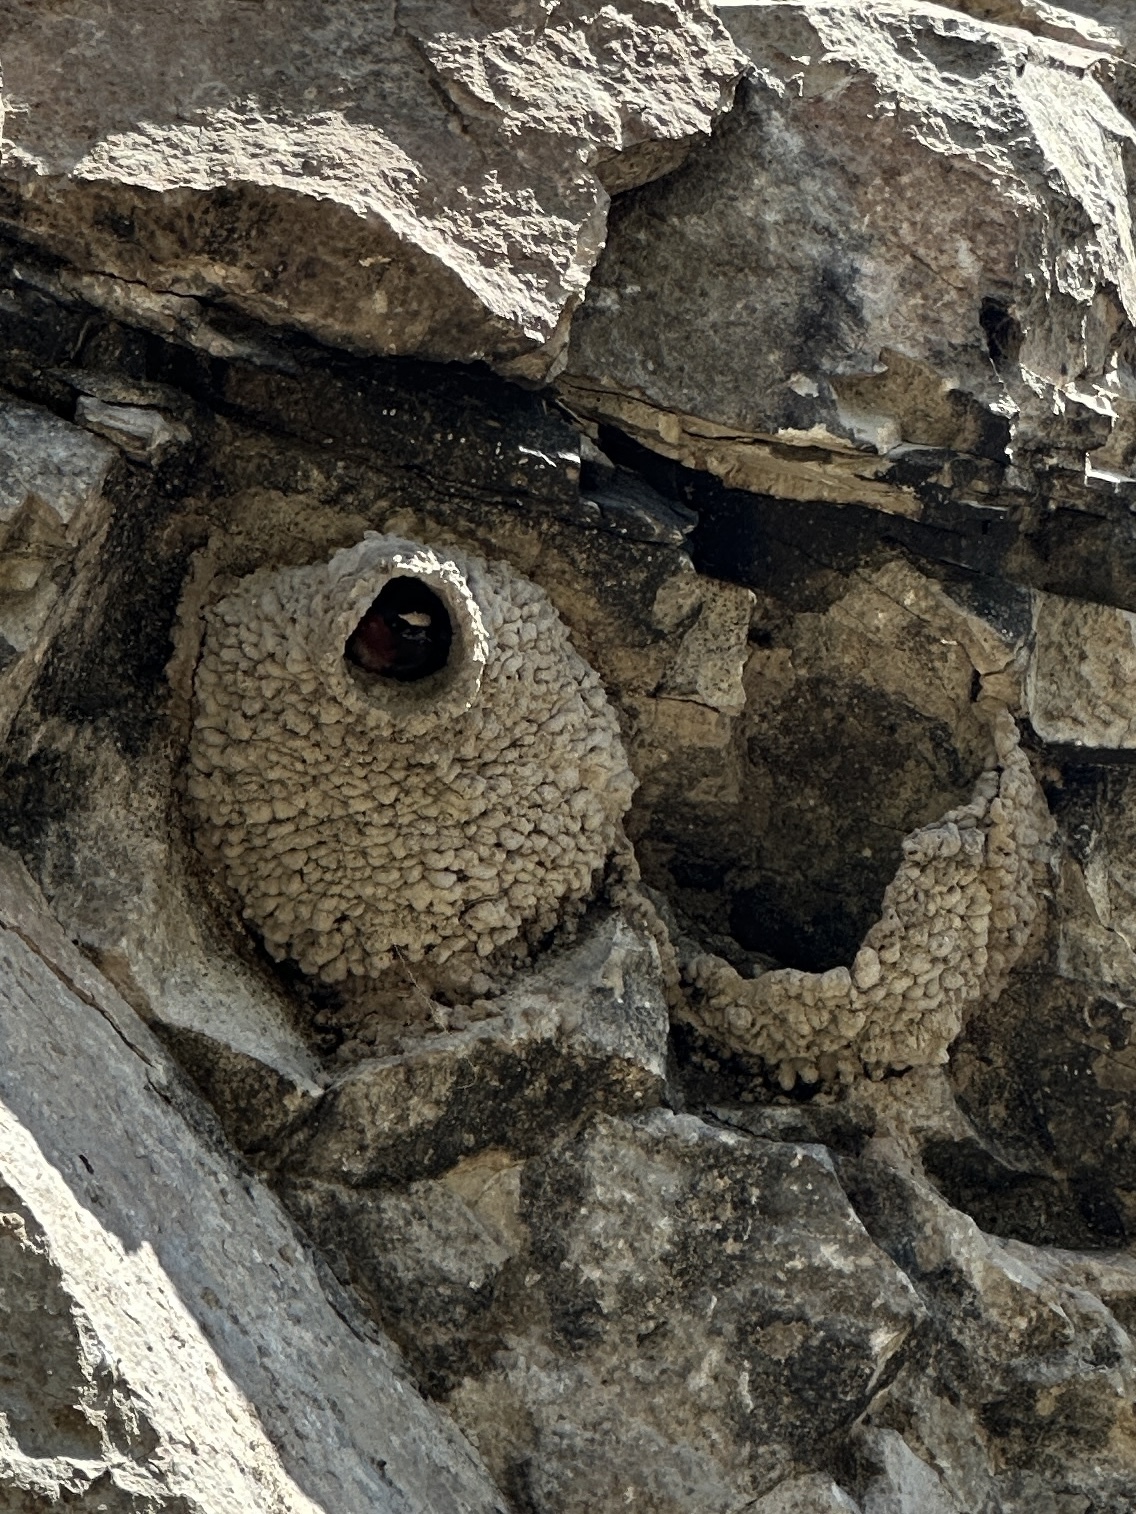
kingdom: Animalia
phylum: Chordata
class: Aves
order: Passeriformes
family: Hirundinidae
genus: Petrochelidon
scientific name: Petrochelidon pyrrhonota
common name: American cliff swallow
